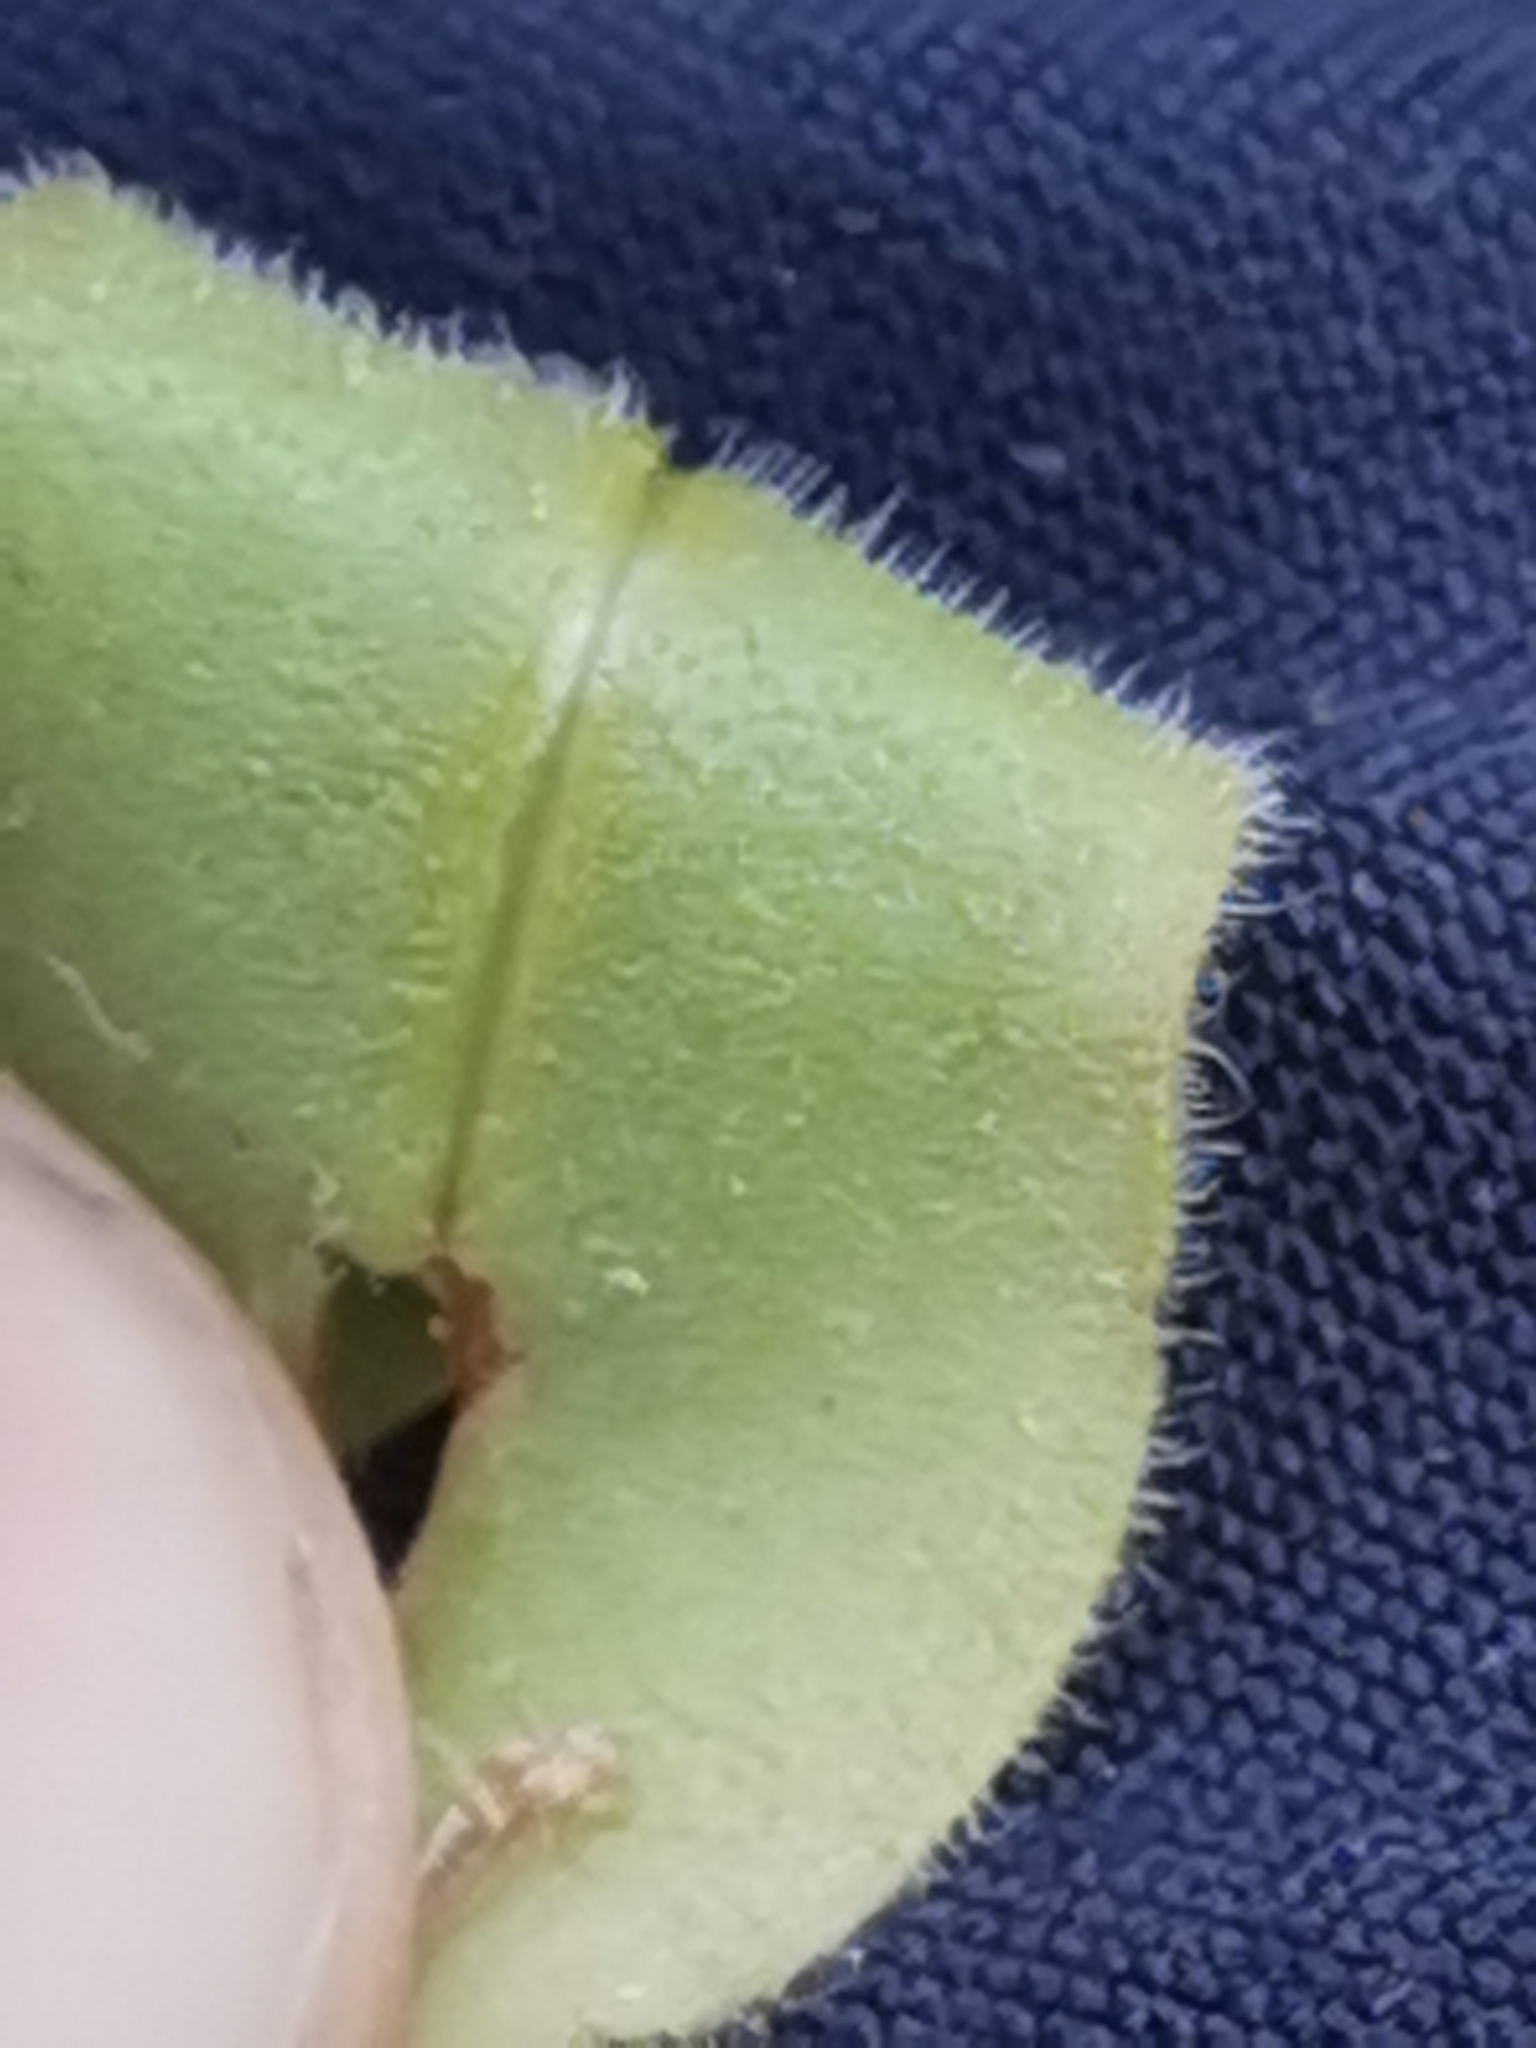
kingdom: Plantae
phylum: Tracheophyta
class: Magnoliopsida
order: Boraginales
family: Boraginaceae
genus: Pulmonaria
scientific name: Pulmonaria australis
